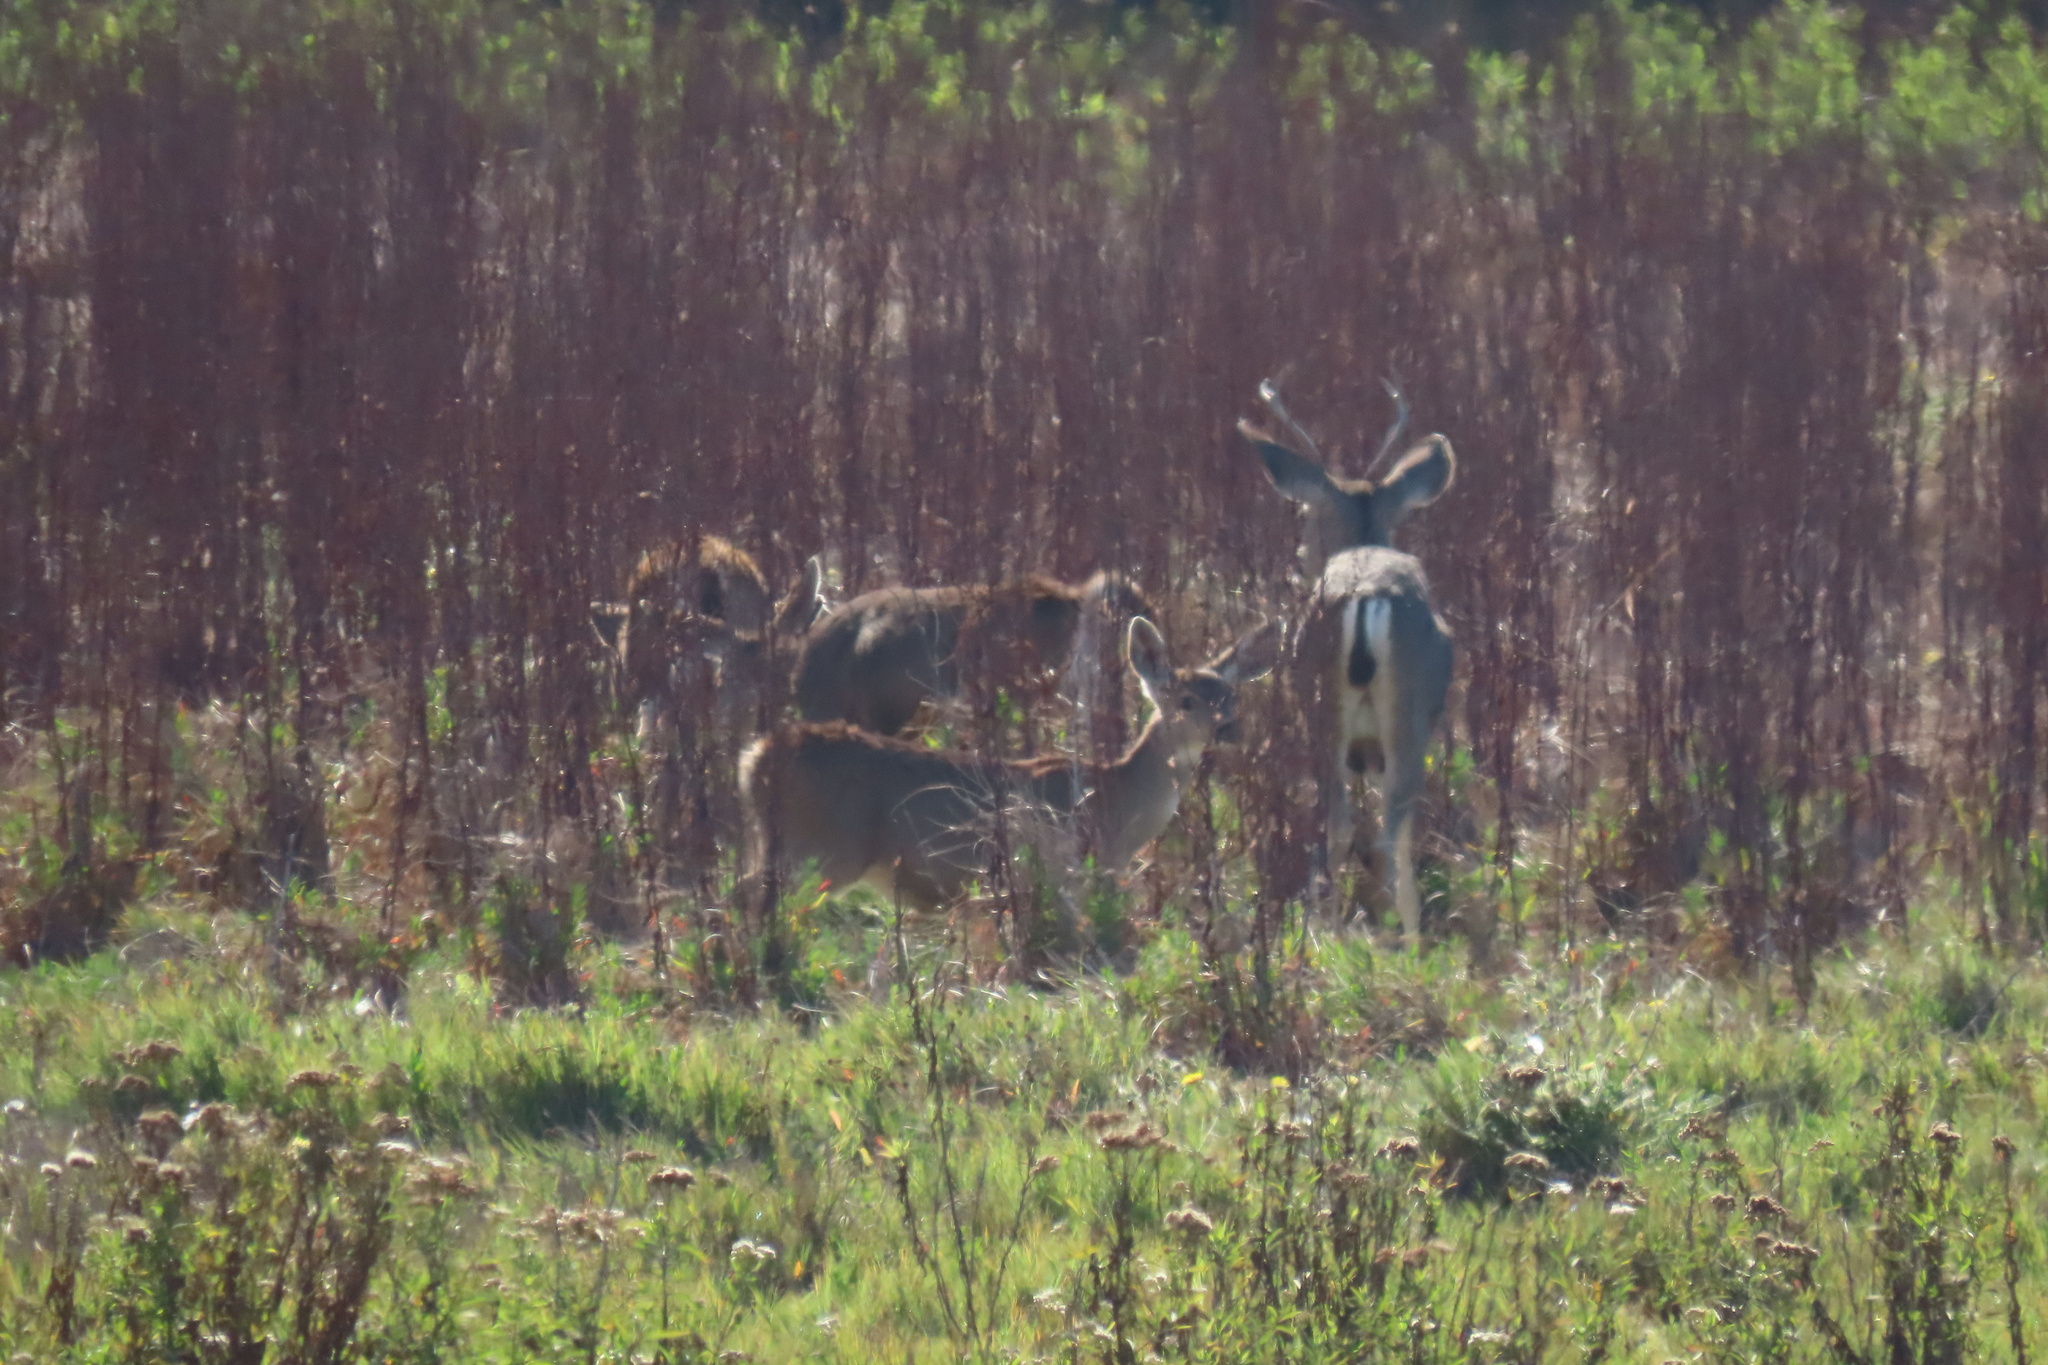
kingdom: Animalia
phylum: Chordata
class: Mammalia
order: Artiodactyla
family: Cervidae
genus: Odocoileus
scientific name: Odocoileus hemionus
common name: Mule deer
